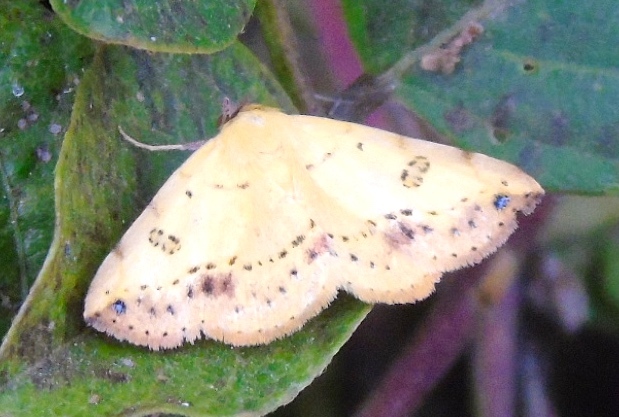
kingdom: Animalia
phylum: Arthropoda
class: Insecta
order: Lepidoptera
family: Erebidae
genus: Hemeroplanis
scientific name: Hemeroplanis
